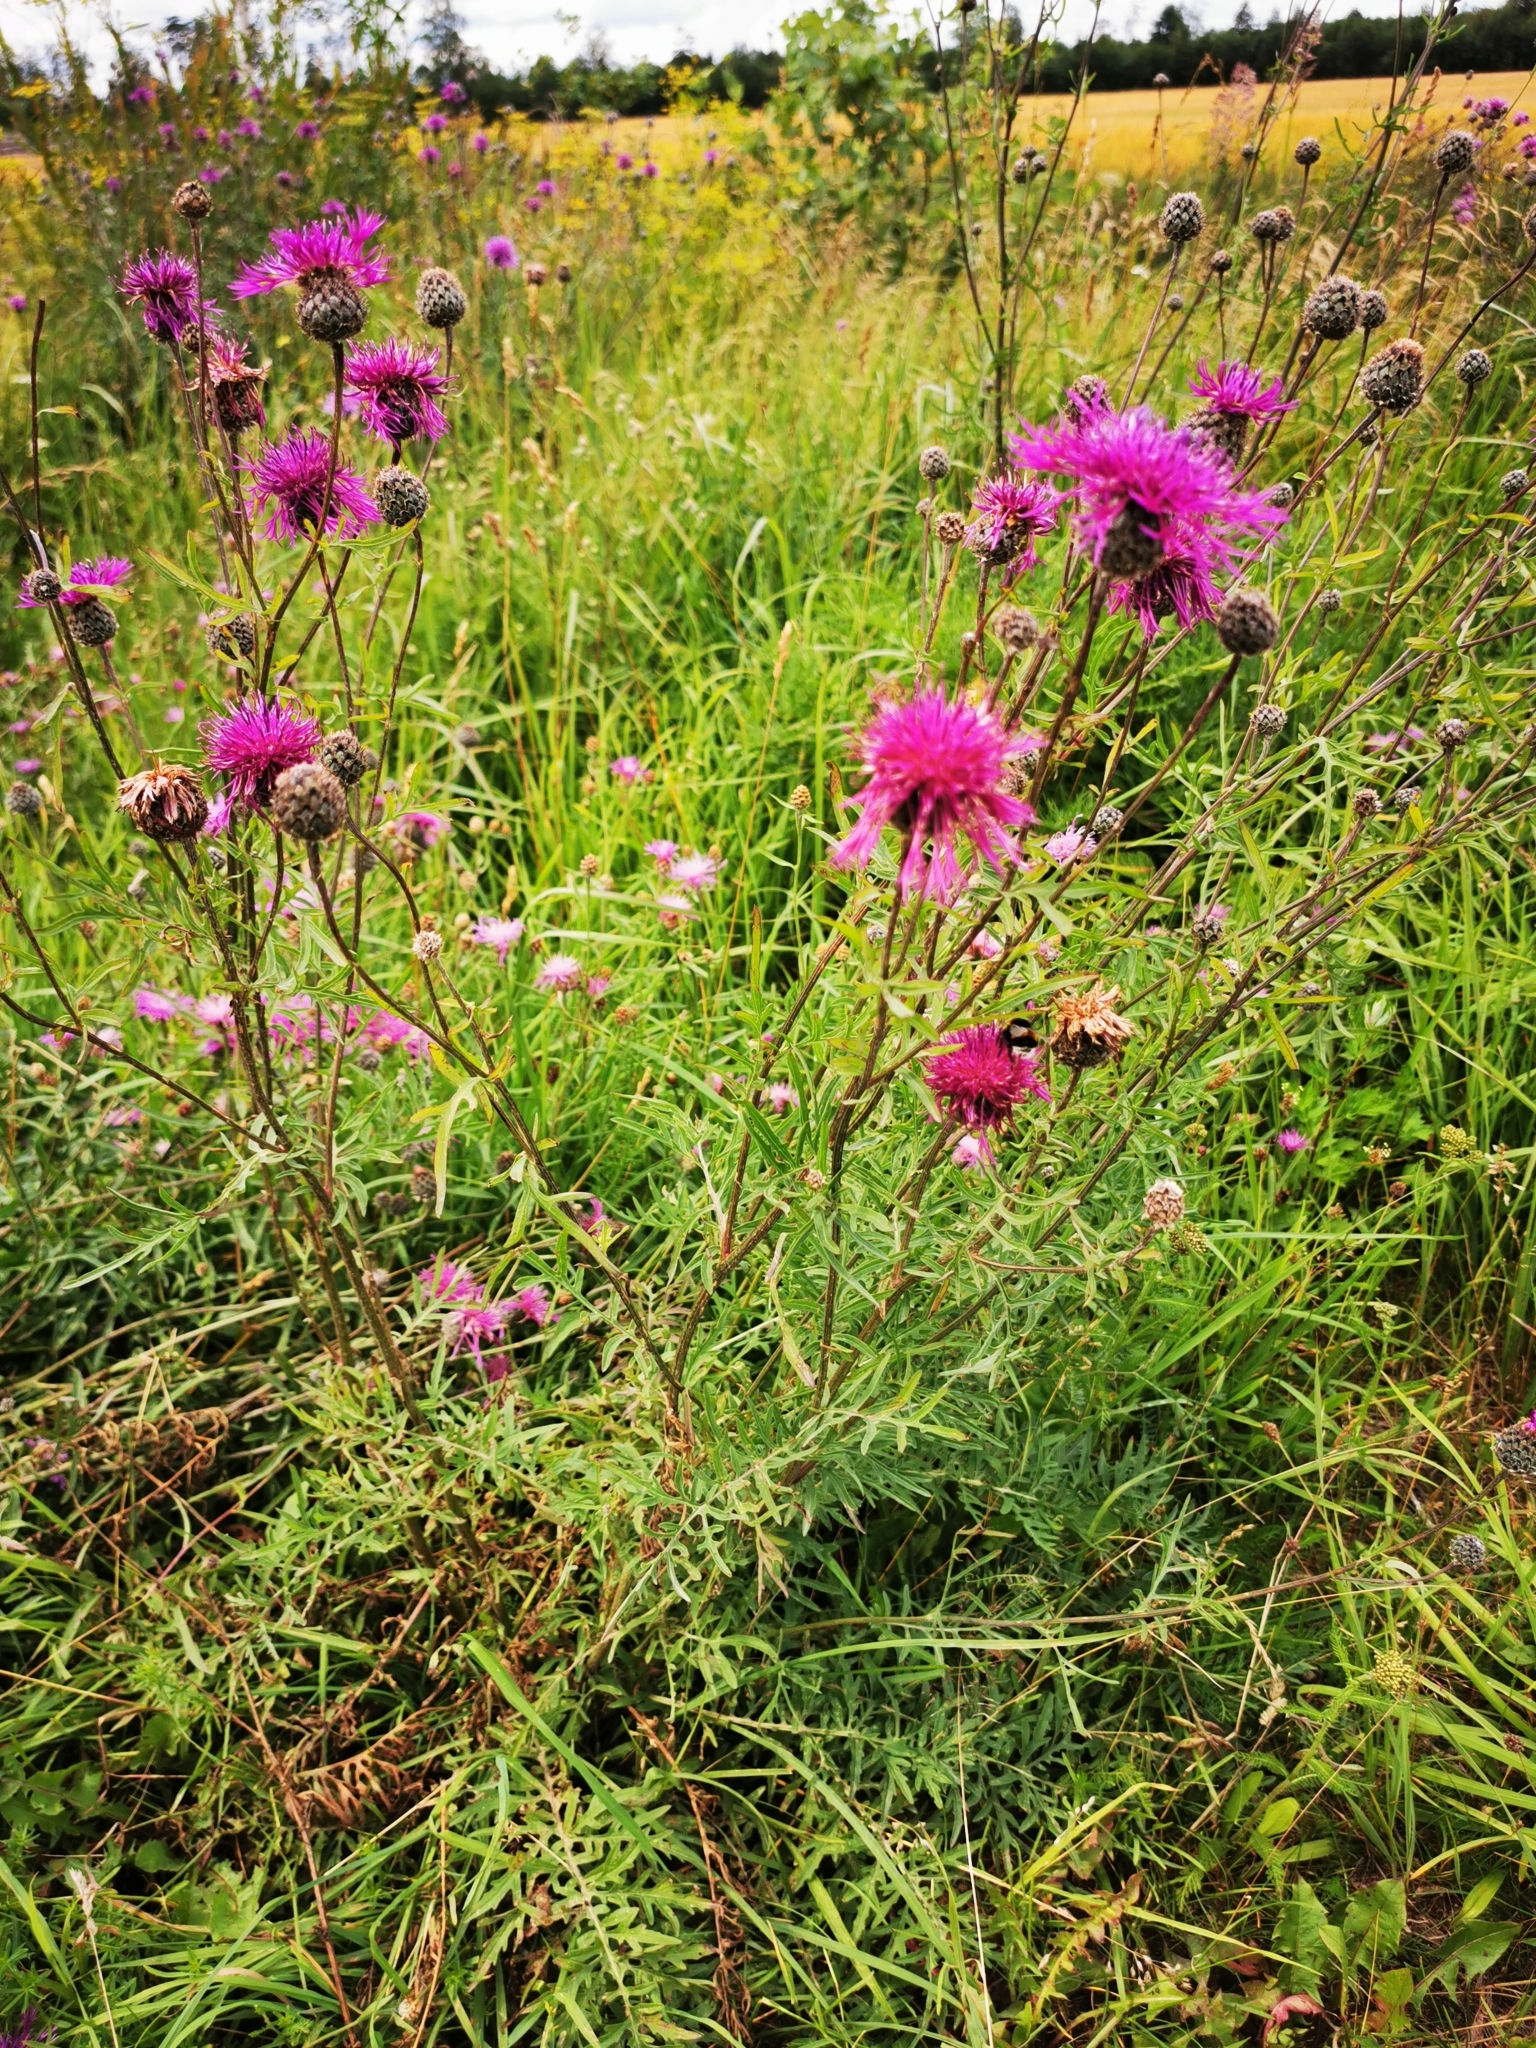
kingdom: Plantae
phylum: Tracheophyta
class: Magnoliopsida
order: Asterales
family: Asteraceae
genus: Centaurea
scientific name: Centaurea scabiosa
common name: Greater knapweed
